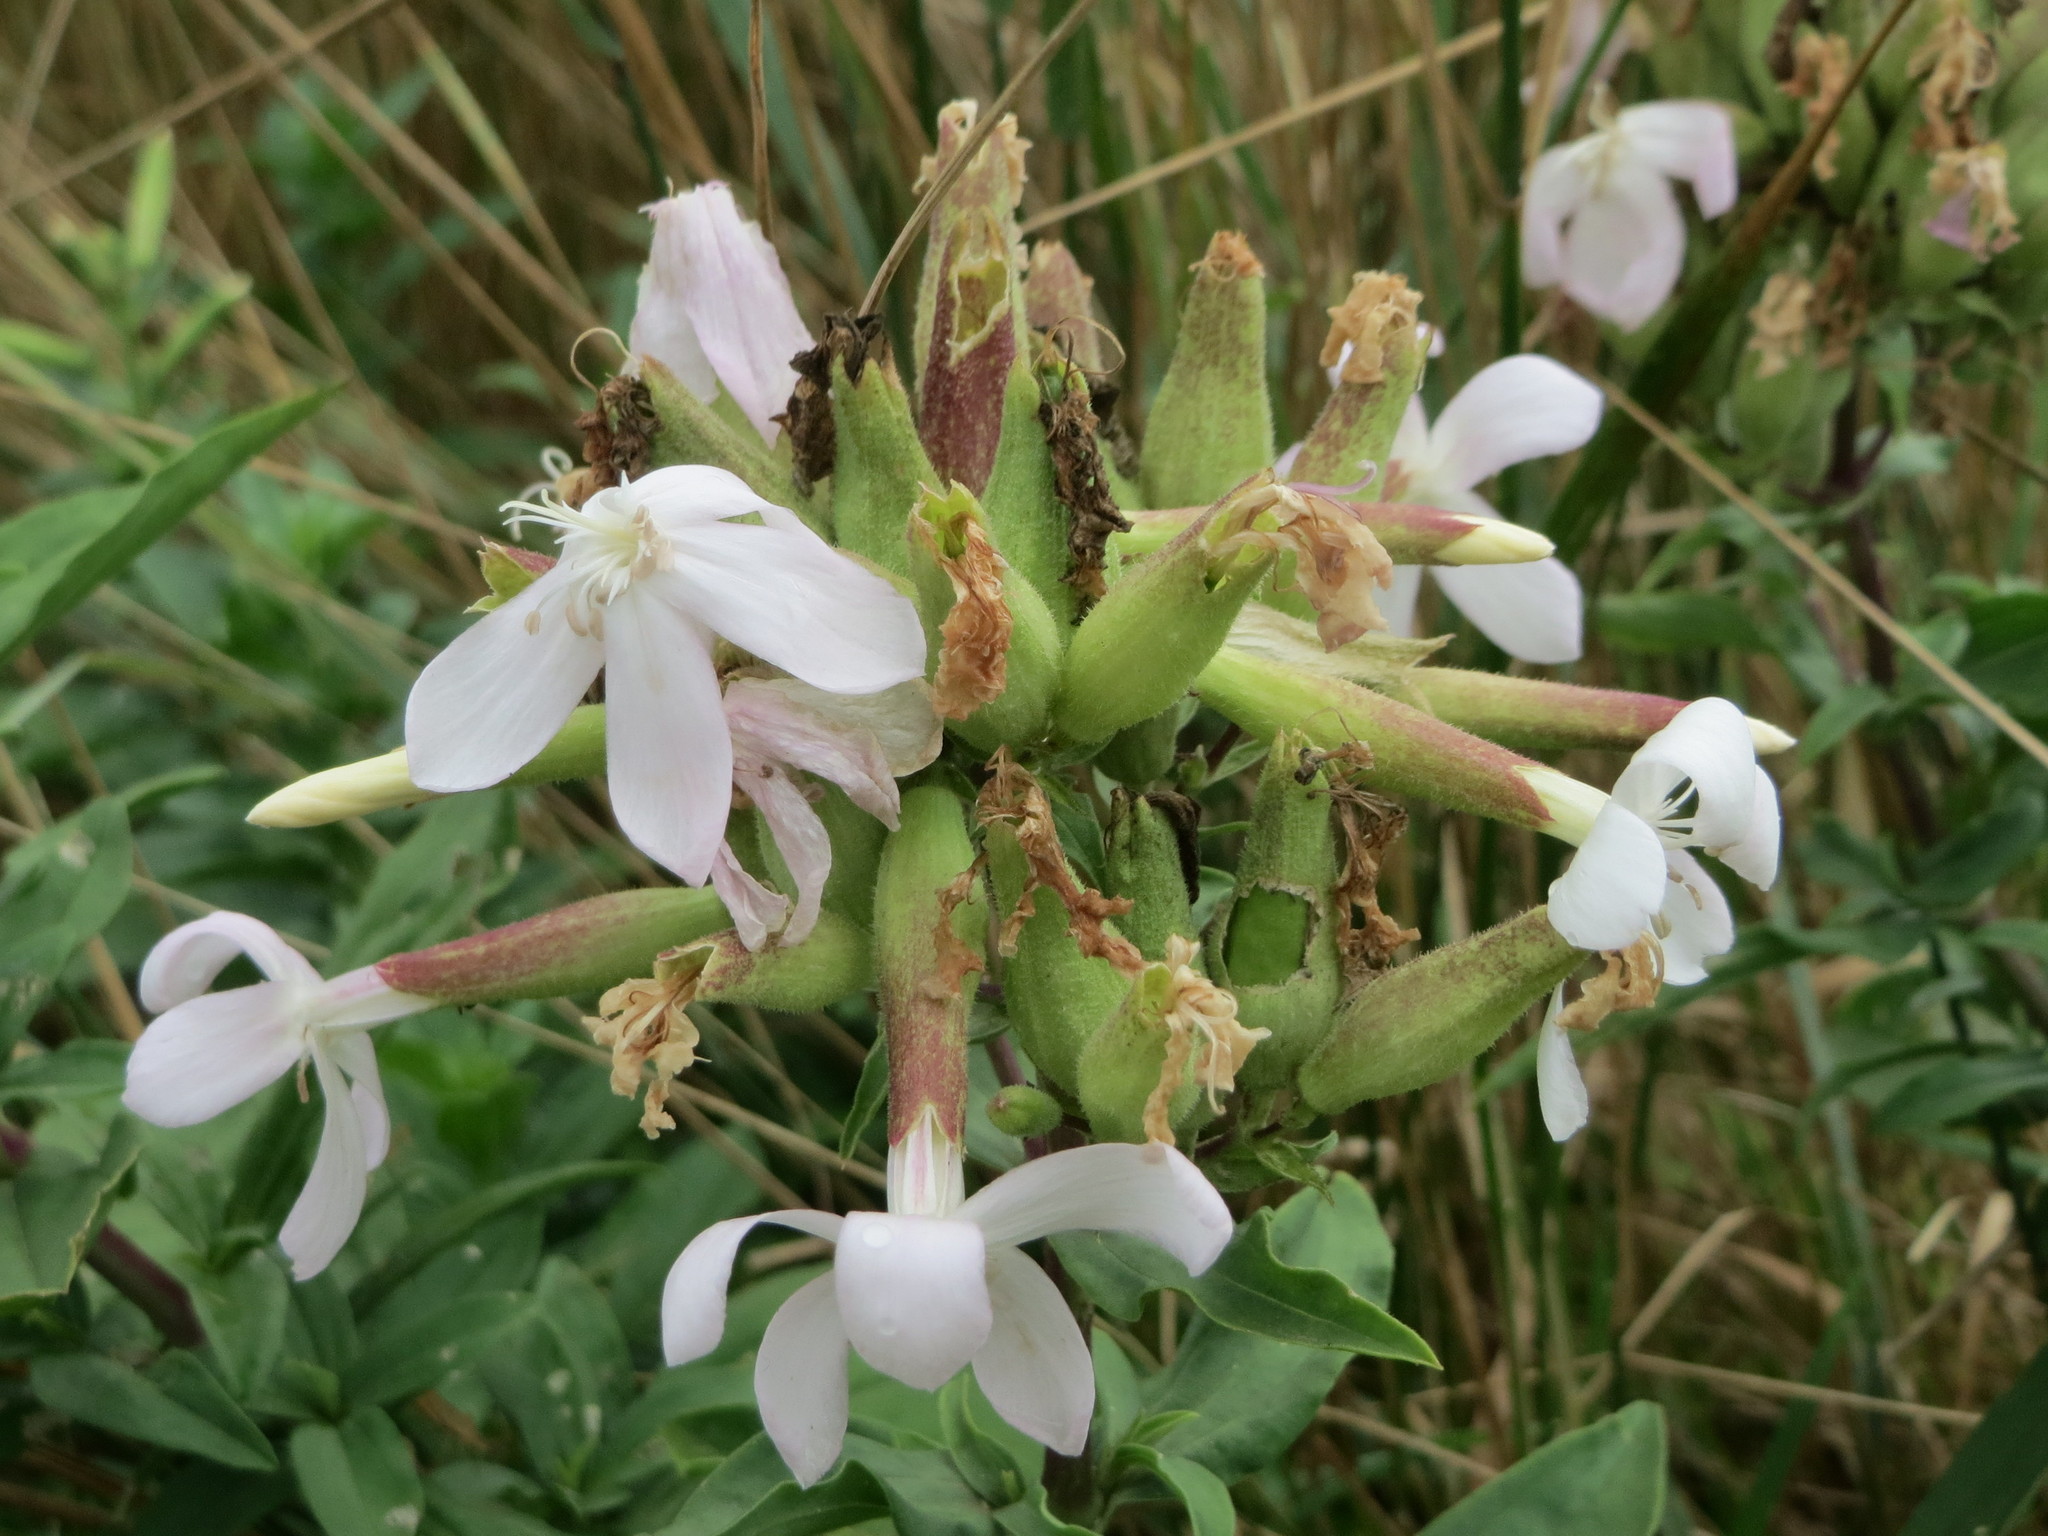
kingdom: Plantae
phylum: Tracheophyta
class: Magnoliopsida
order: Caryophyllales
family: Caryophyllaceae
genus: Saponaria
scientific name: Saponaria officinalis
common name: Soapwort
